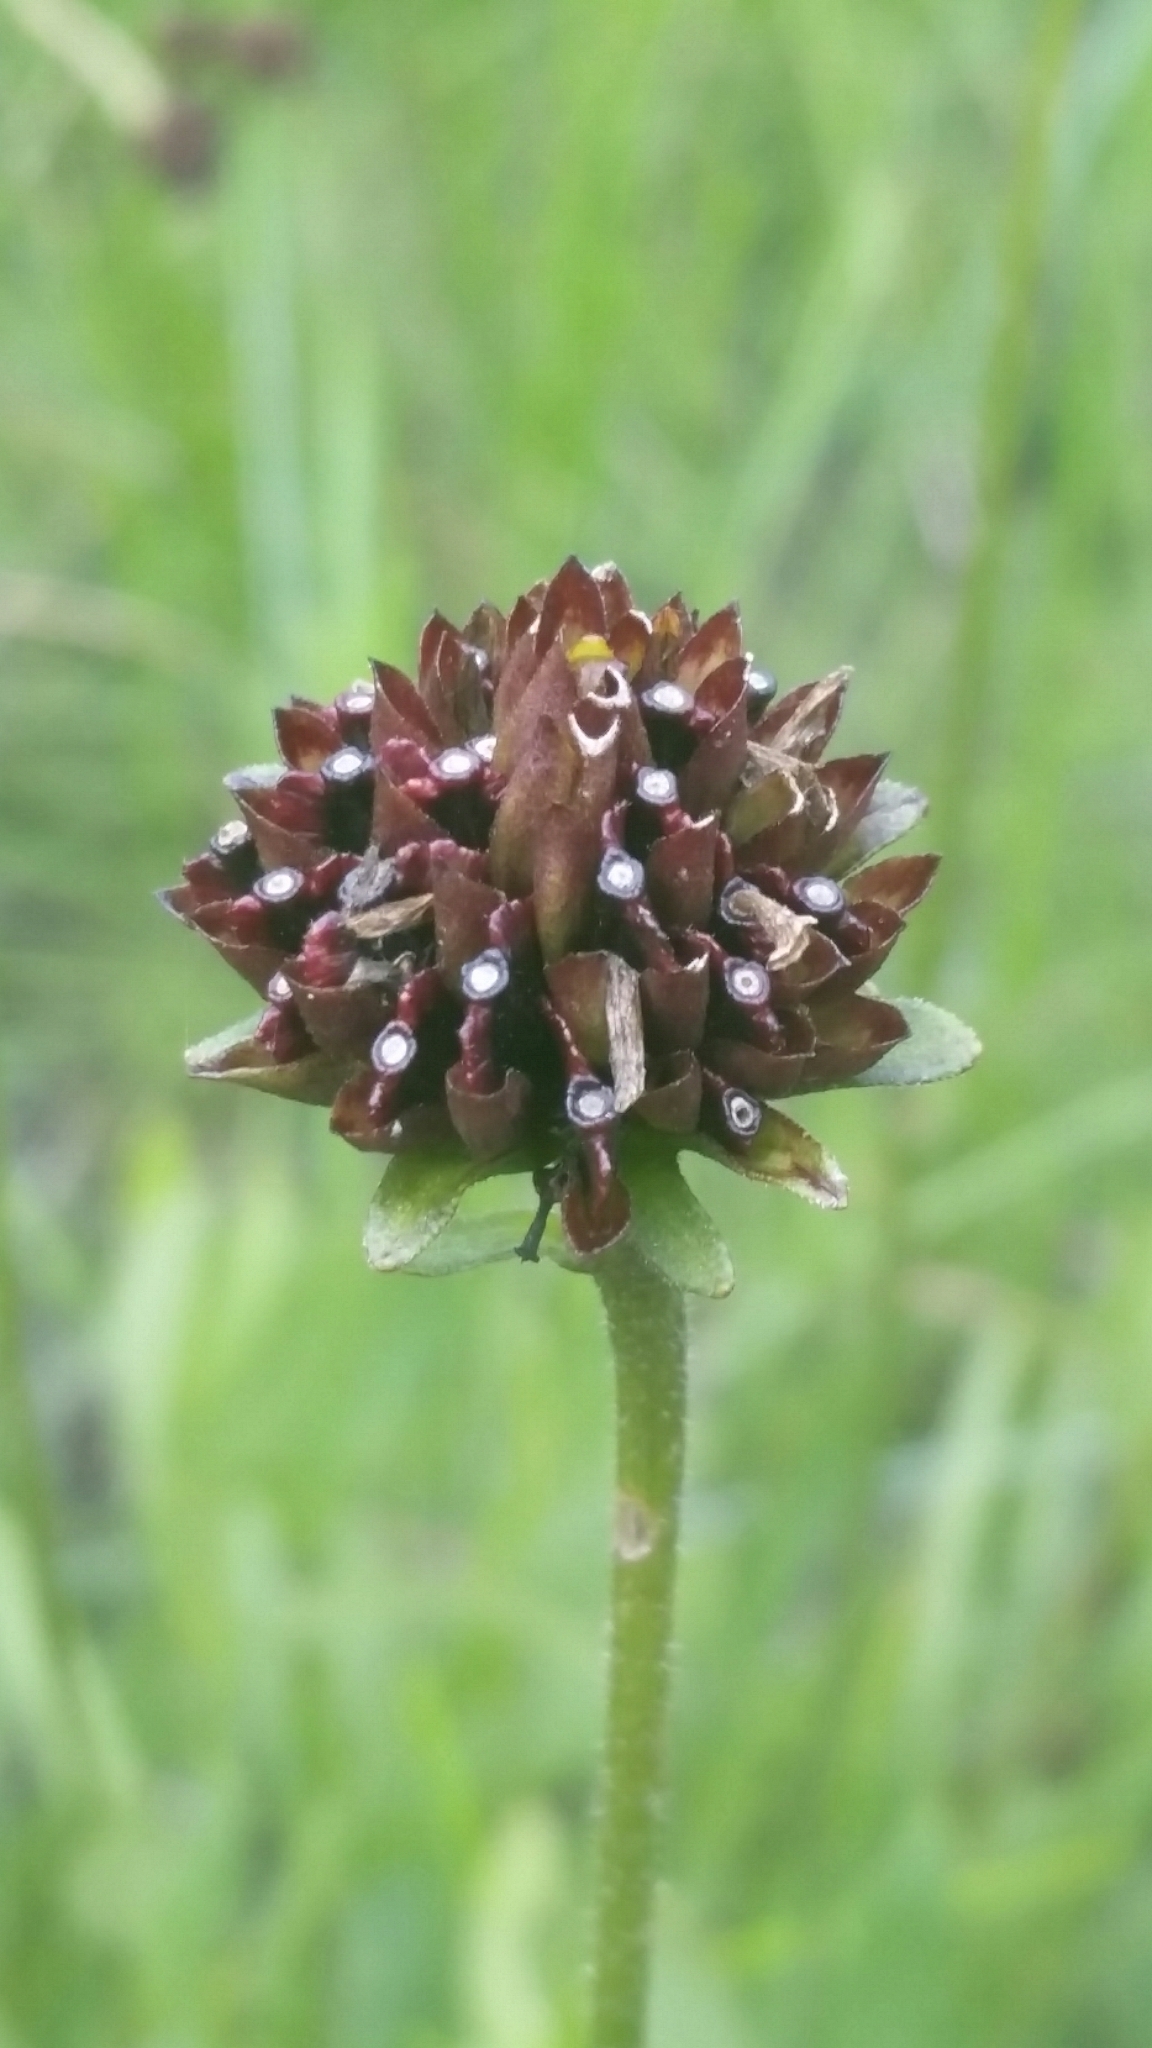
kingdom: Plantae
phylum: Tracheophyta
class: Magnoliopsida
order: Asterales
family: Asteraceae
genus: Verbesina
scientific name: Verbesina chapmanii
